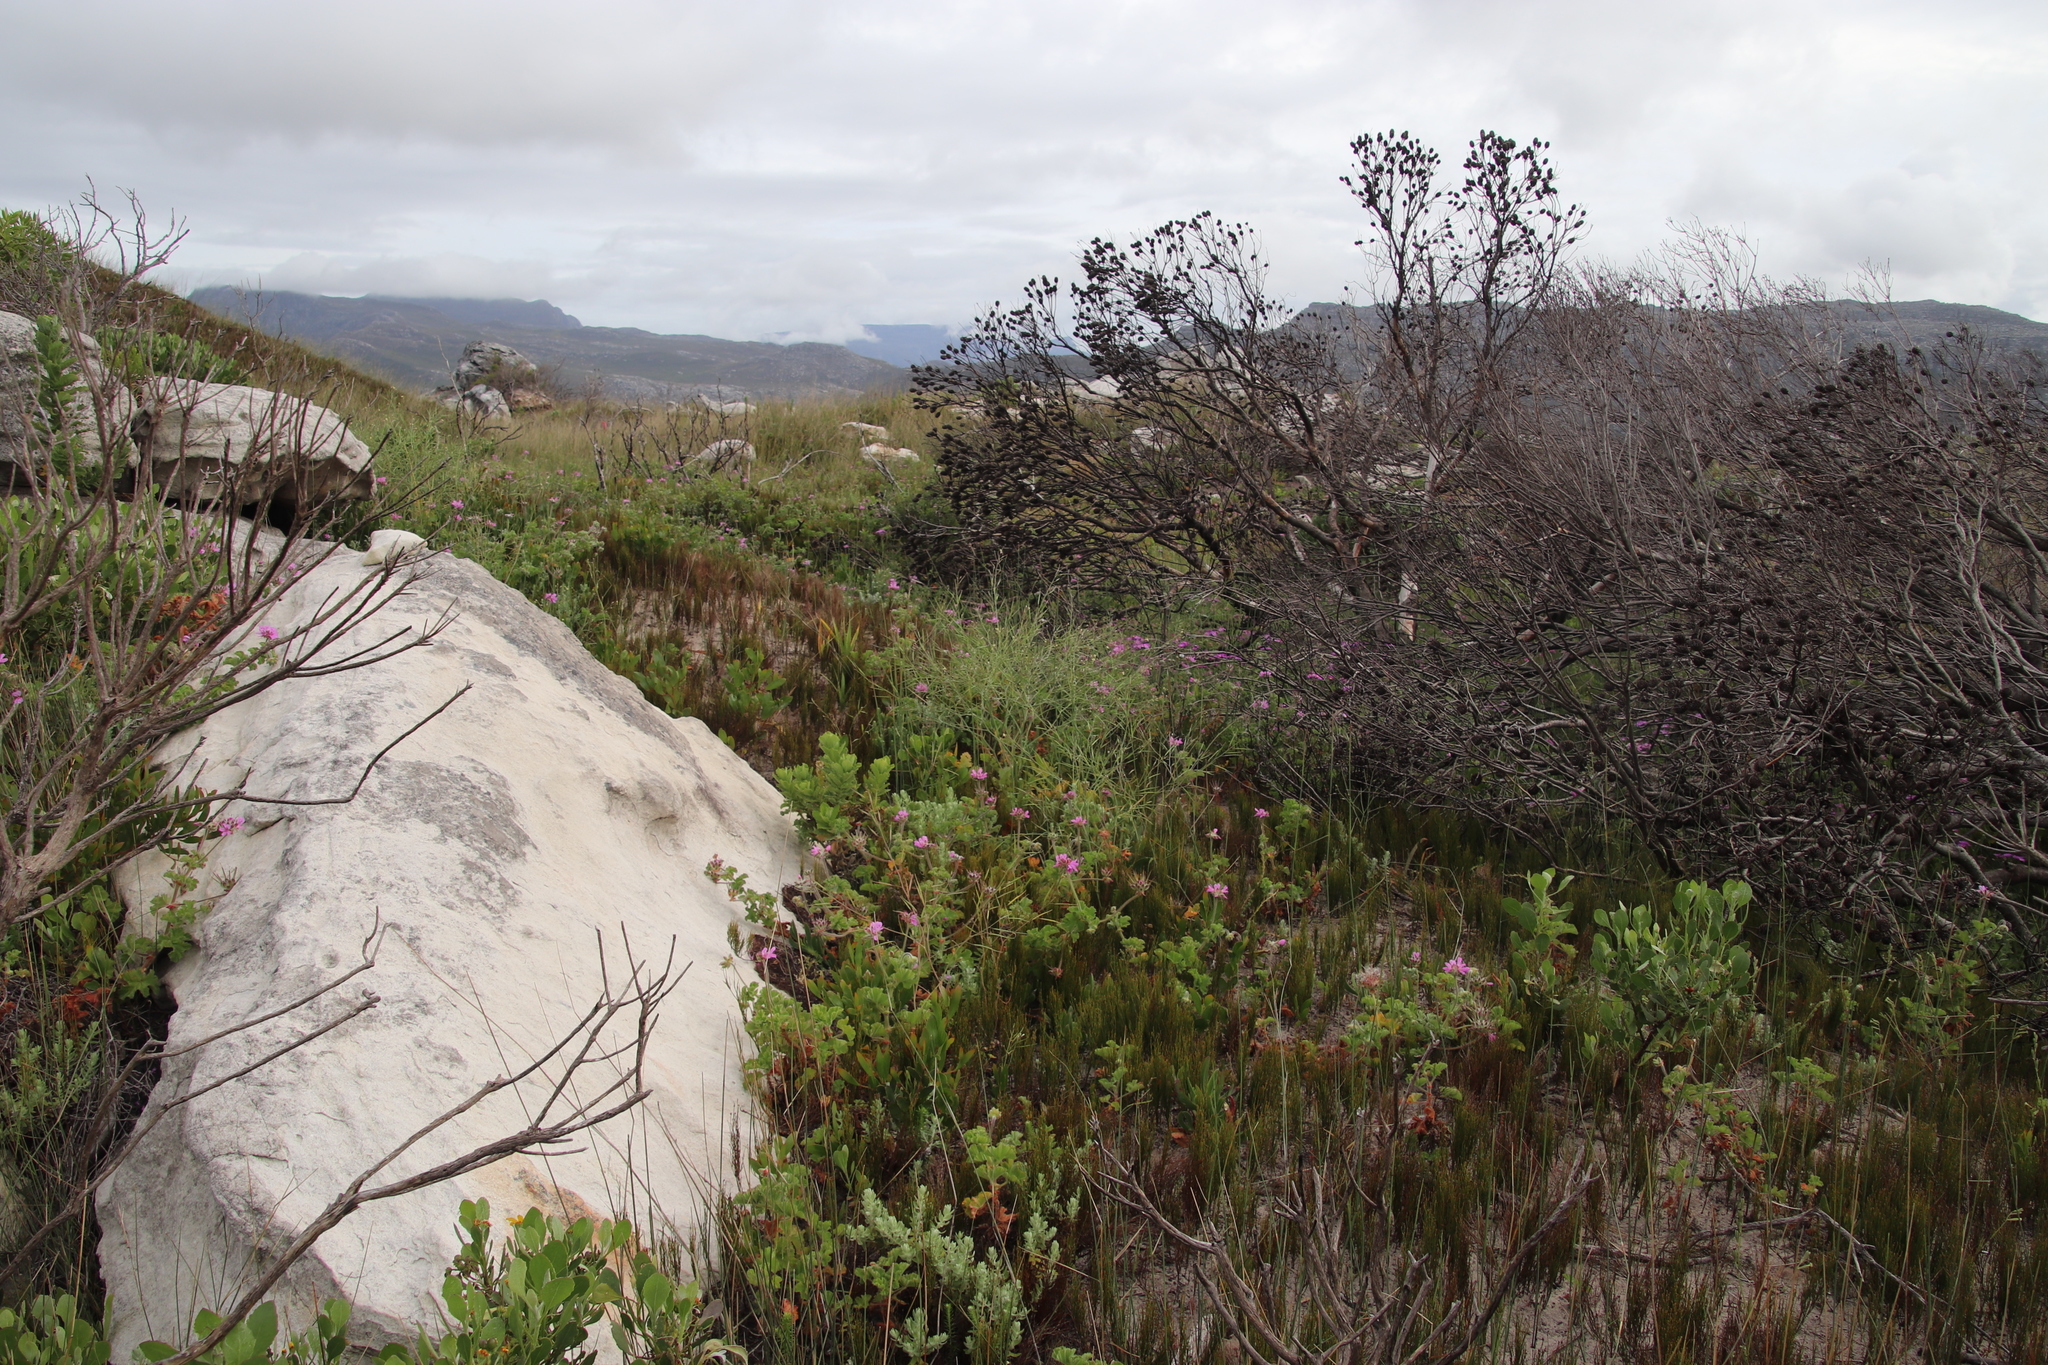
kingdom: Plantae
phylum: Tracheophyta
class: Magnoliopsida
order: Brassicales
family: Brassicaceae
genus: Brassica
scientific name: Brassica tournefortii
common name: Pale cabbage
